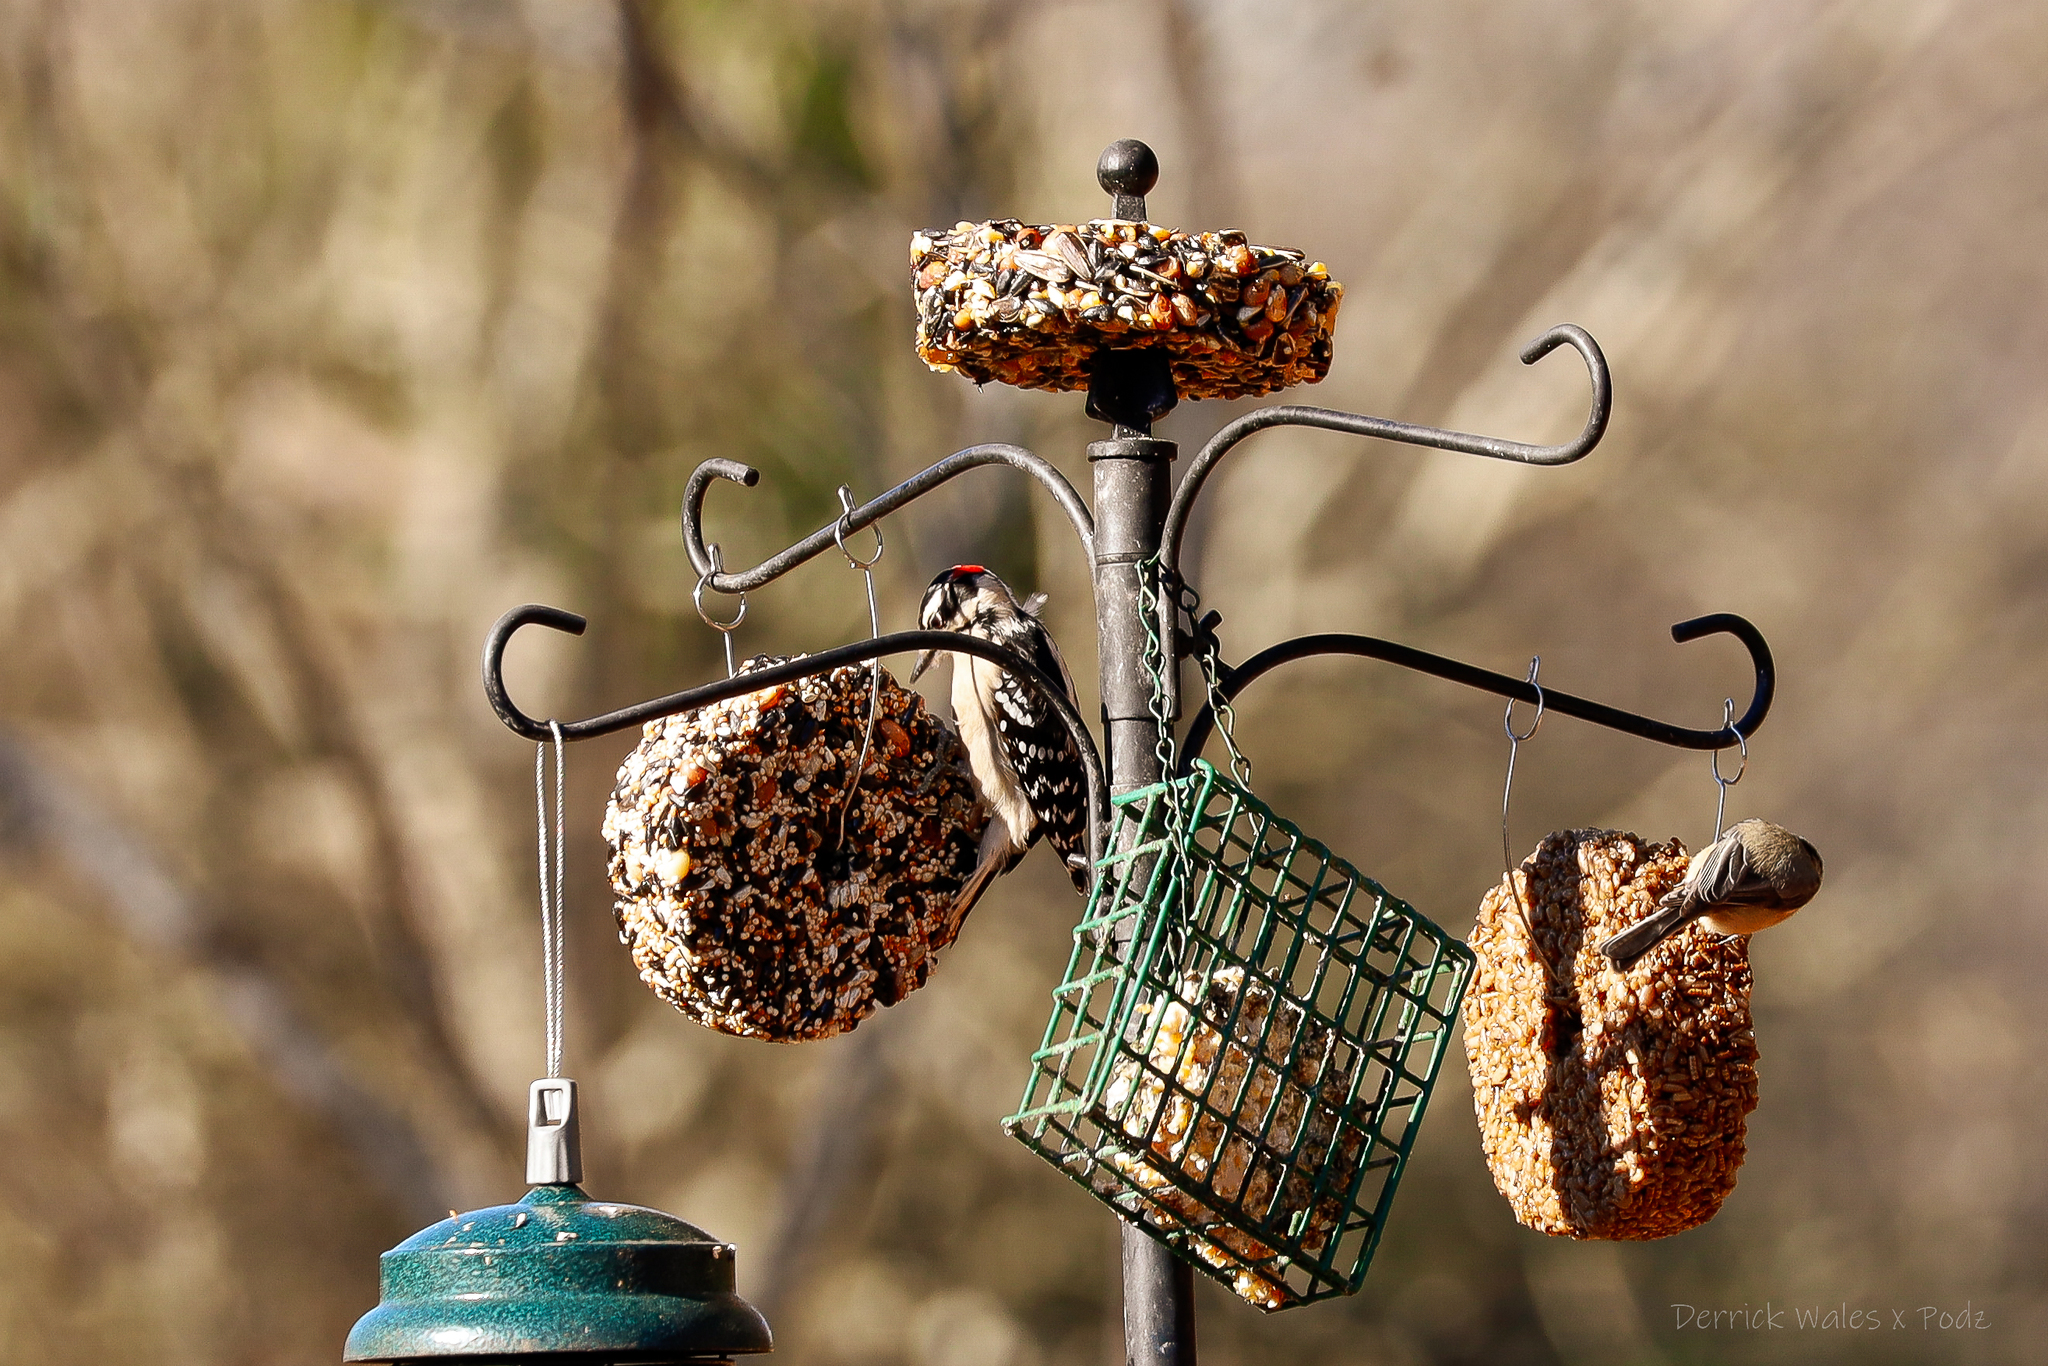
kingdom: Animalia
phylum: Chordata
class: Aves
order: Piciformes
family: Picidae
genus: Dryobates
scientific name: Dryobates pubescens
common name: Downy woodpecker
